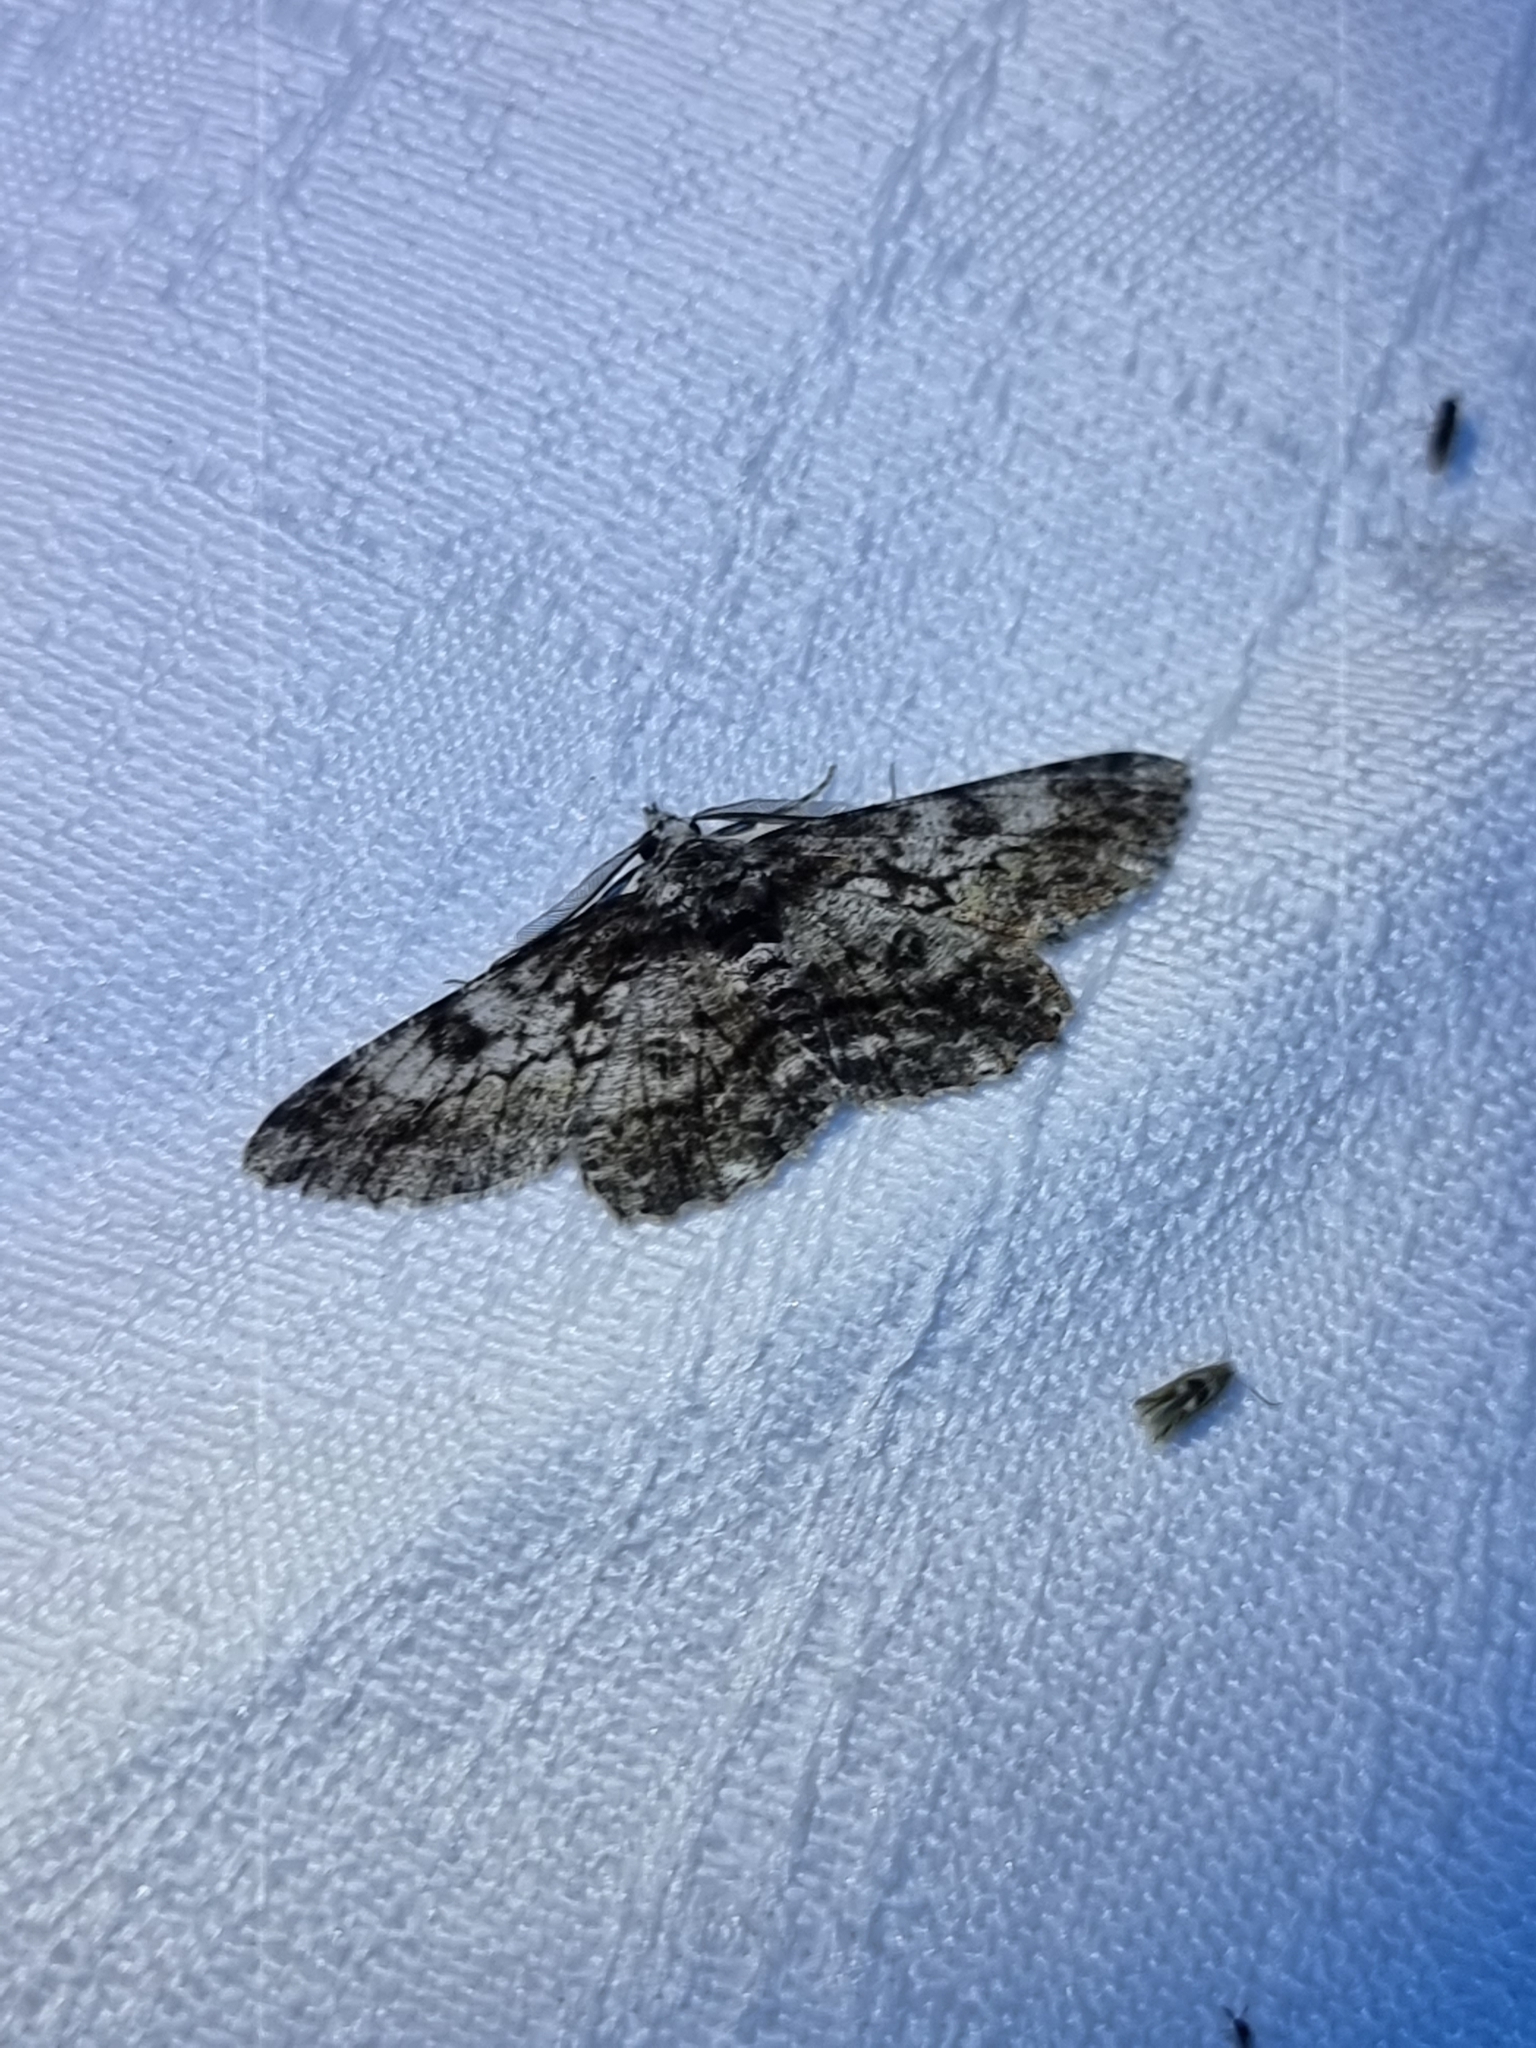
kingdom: Animalia
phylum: Arthropoda
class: Insecta
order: Lepidoptera
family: Geometridae
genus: Cleora
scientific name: Cleora injectaria
